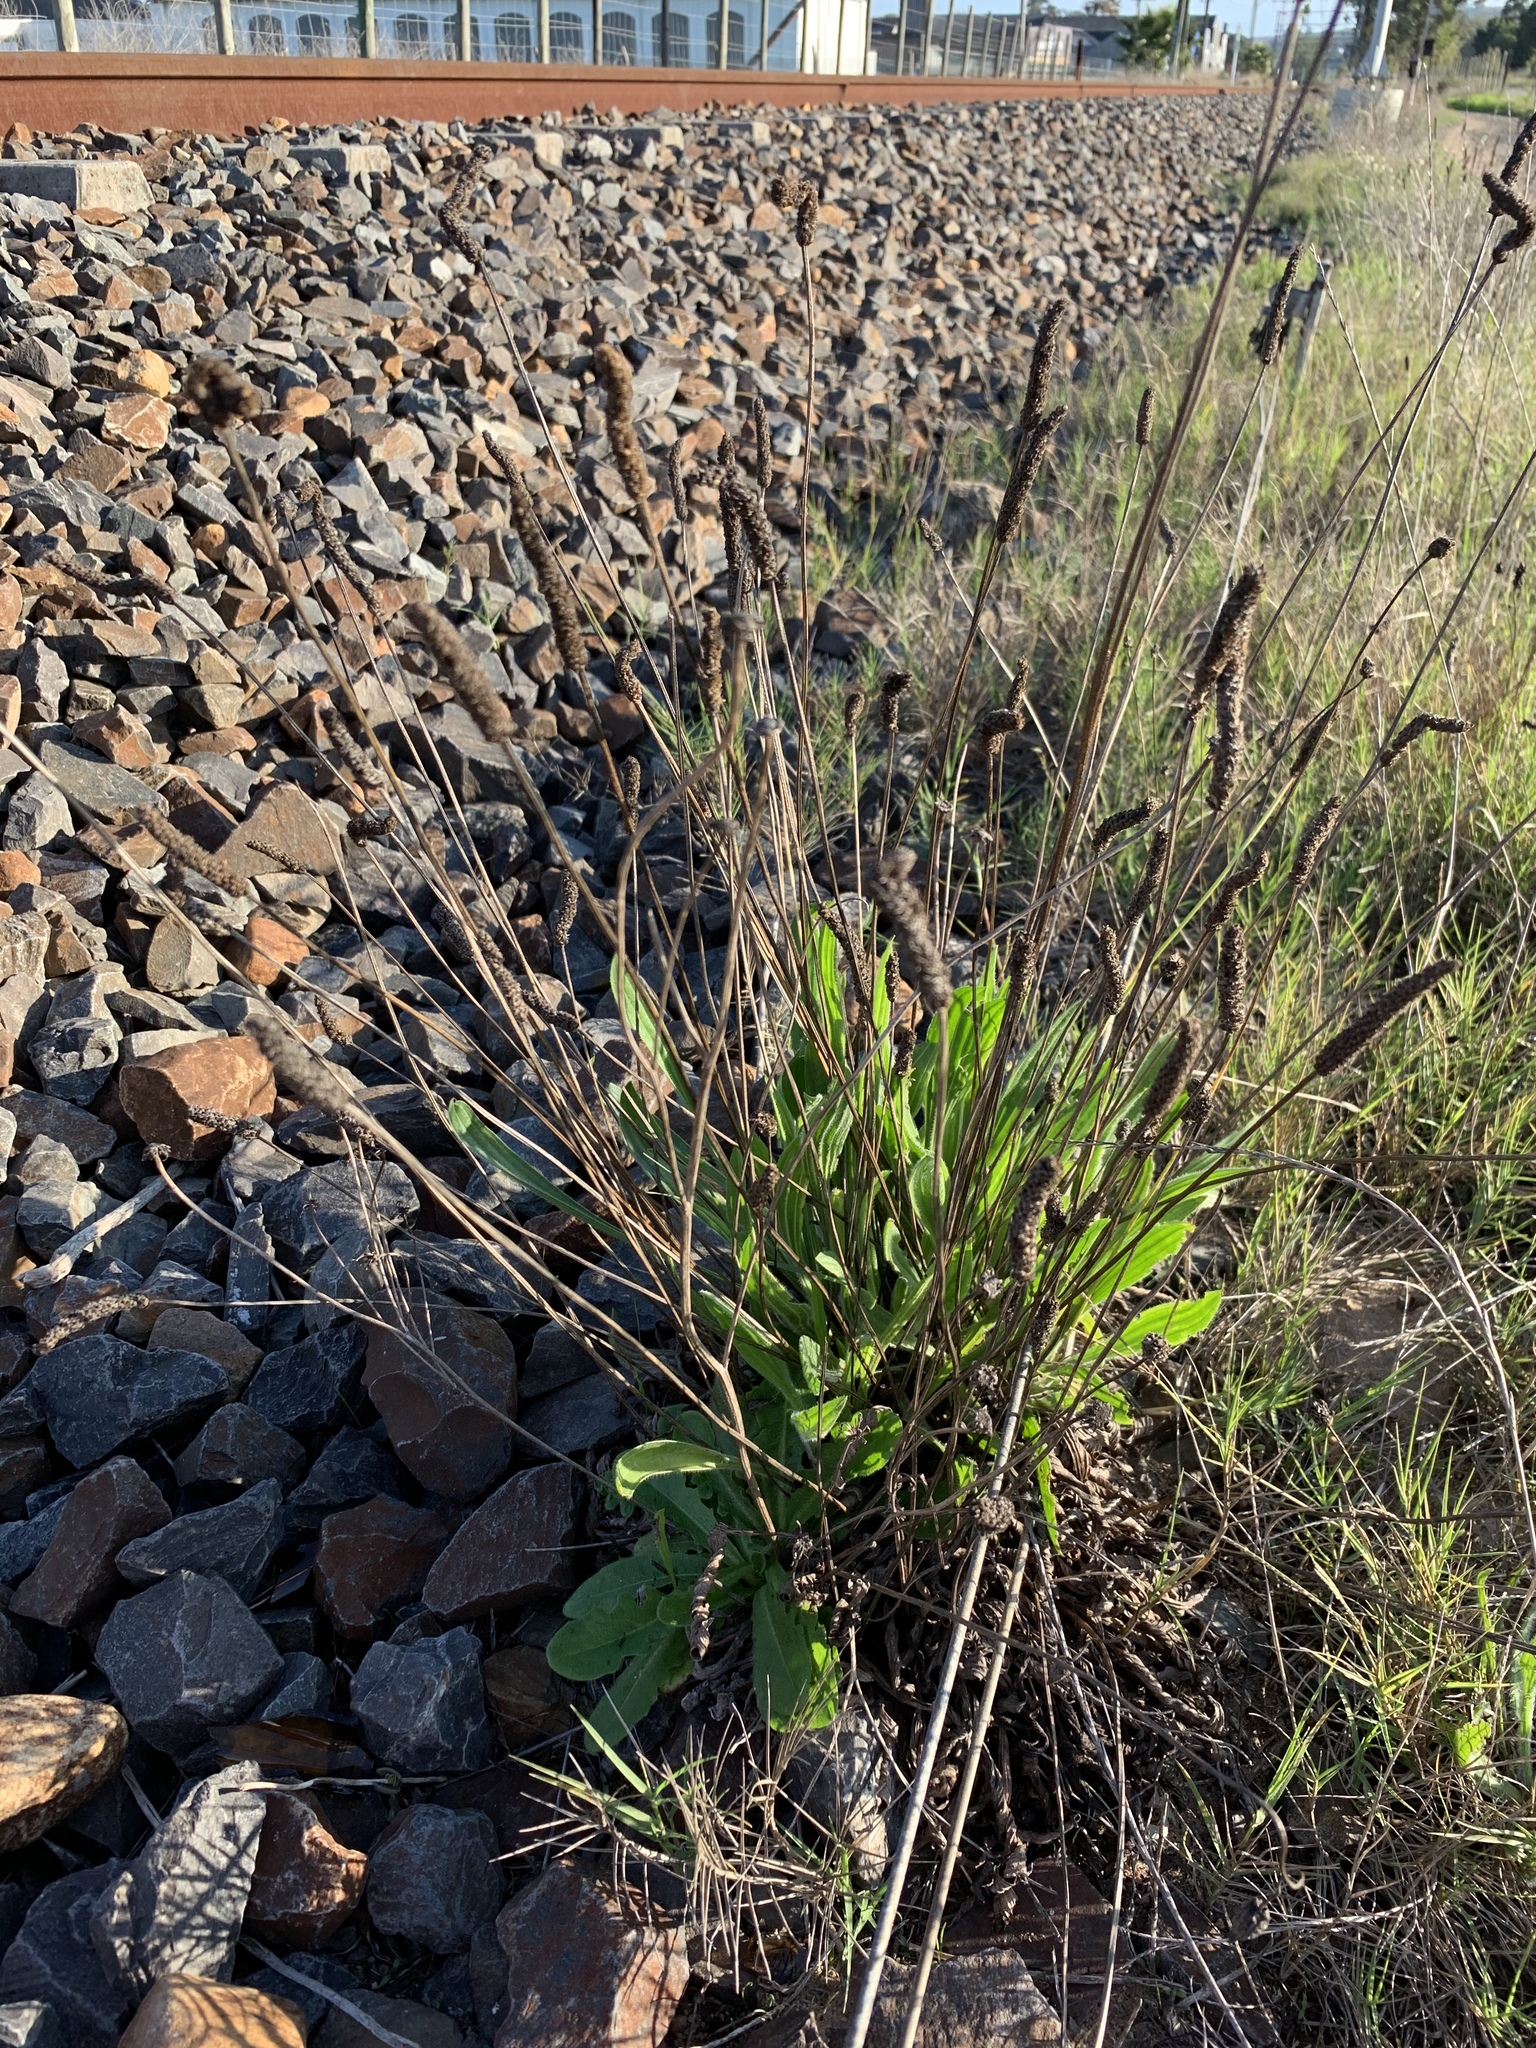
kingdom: Plantae
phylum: Tracheophyta
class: Magnoliopsida
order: Lamiales
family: Plantaginaceae
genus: Plantago
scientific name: Plantago lanceolata
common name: Ribwort plantain
